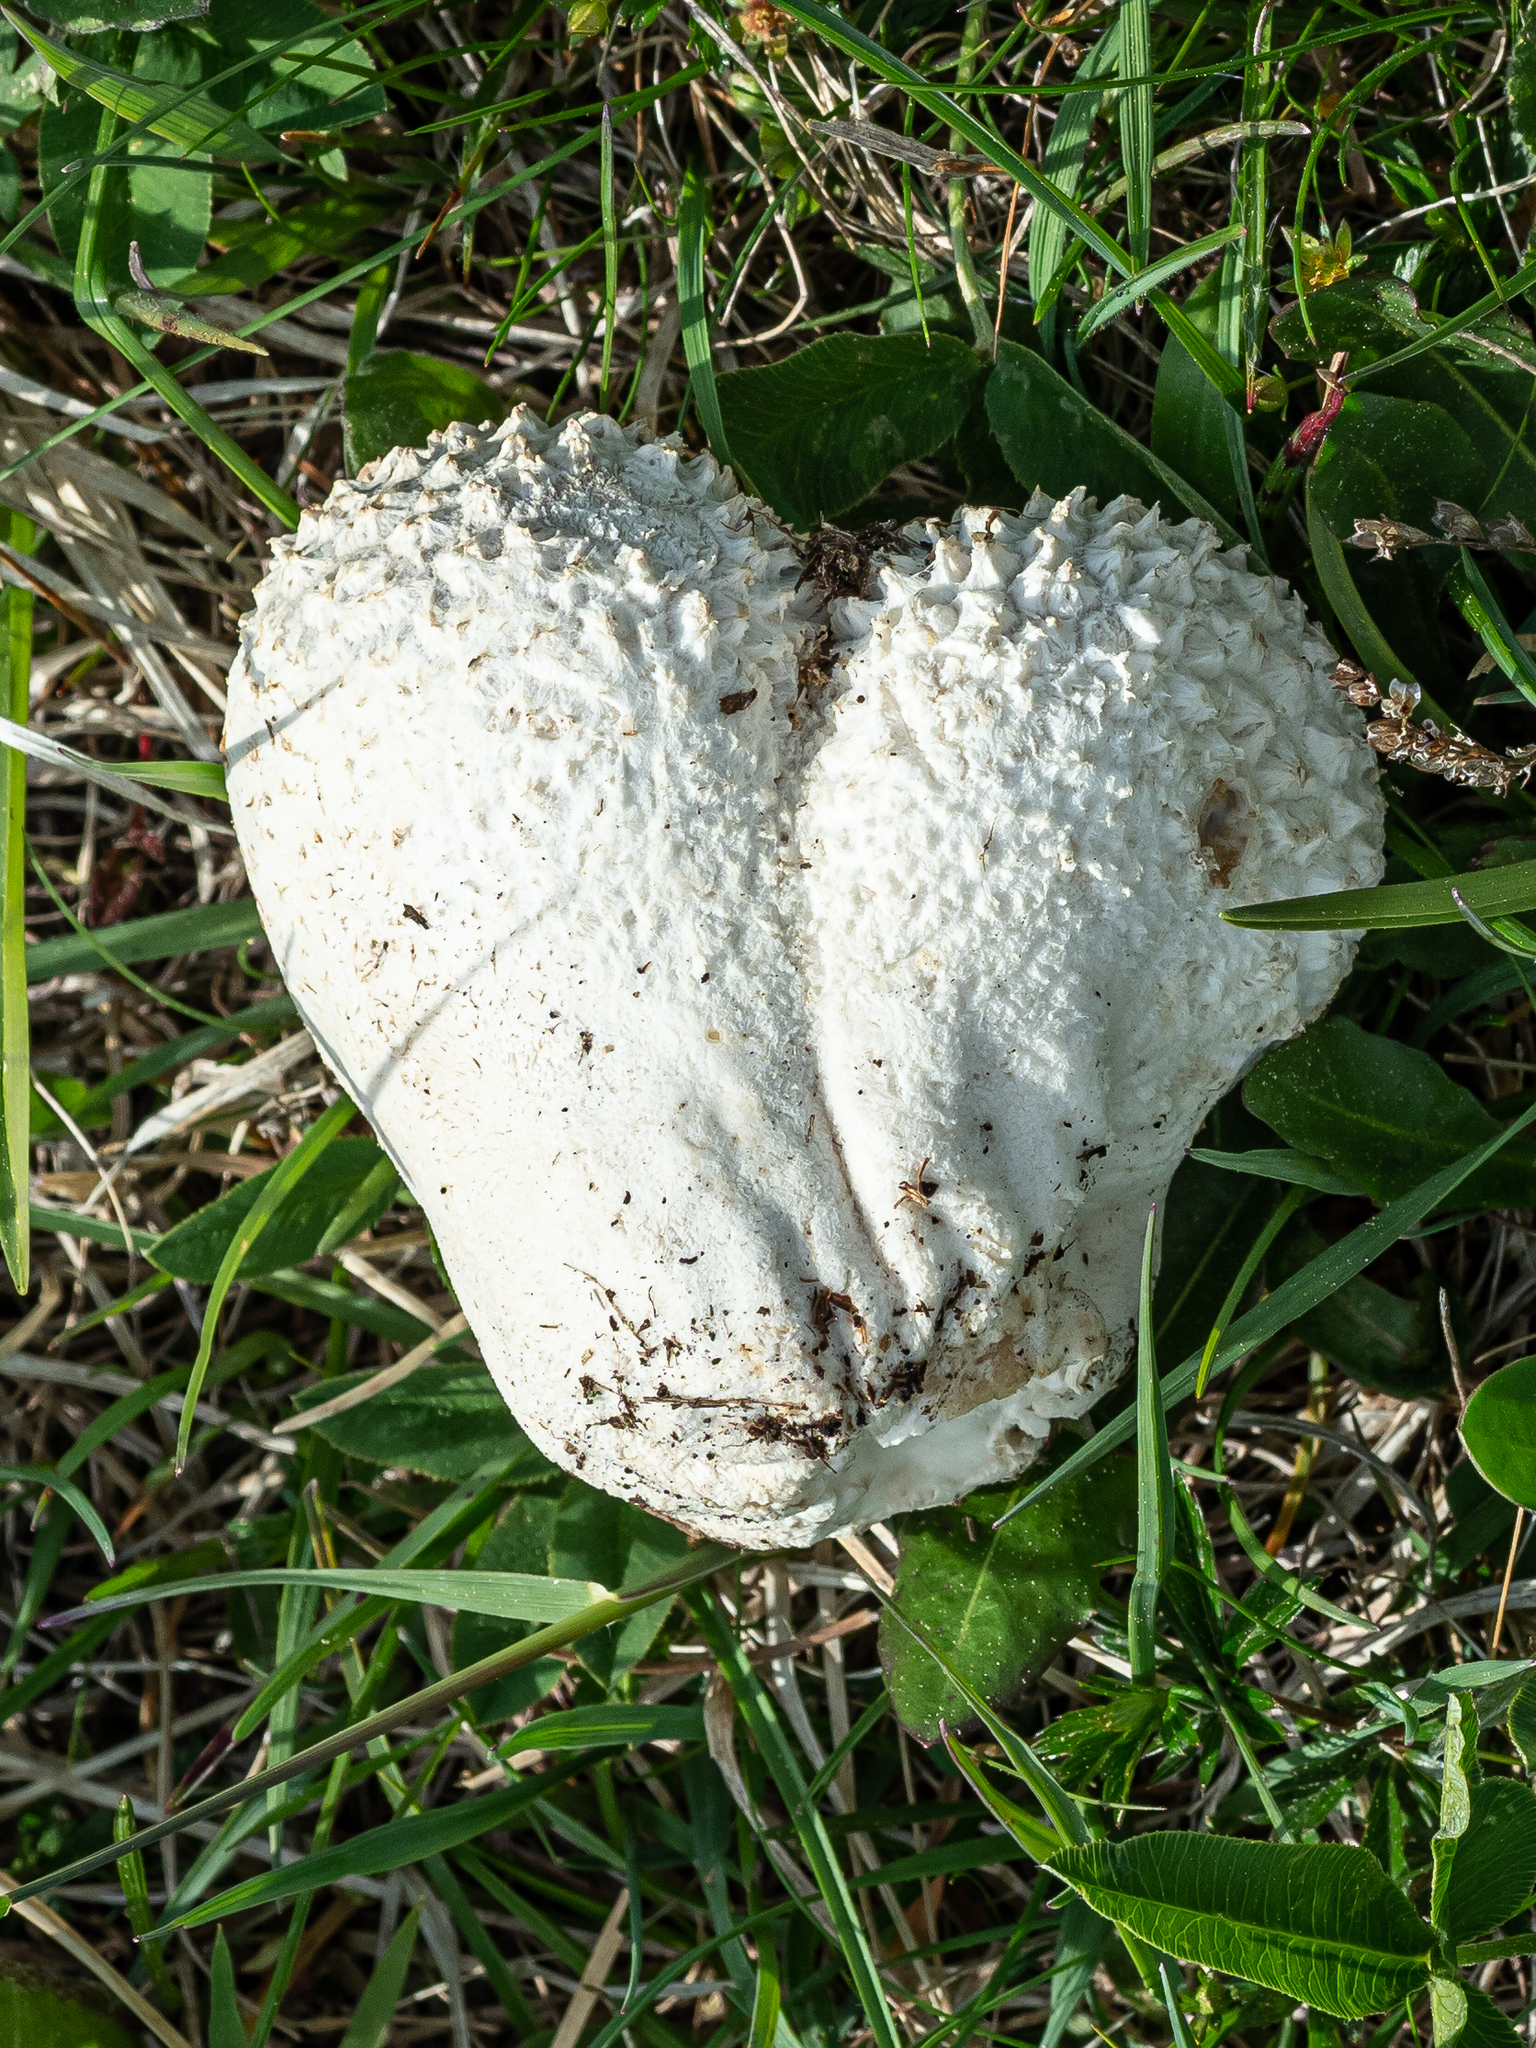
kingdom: Fungi
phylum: Basidiomycota
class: Agaricomycetes
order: Agaricales
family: Lycoperdaceae
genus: Bovistella
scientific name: Bovistella utriformis
